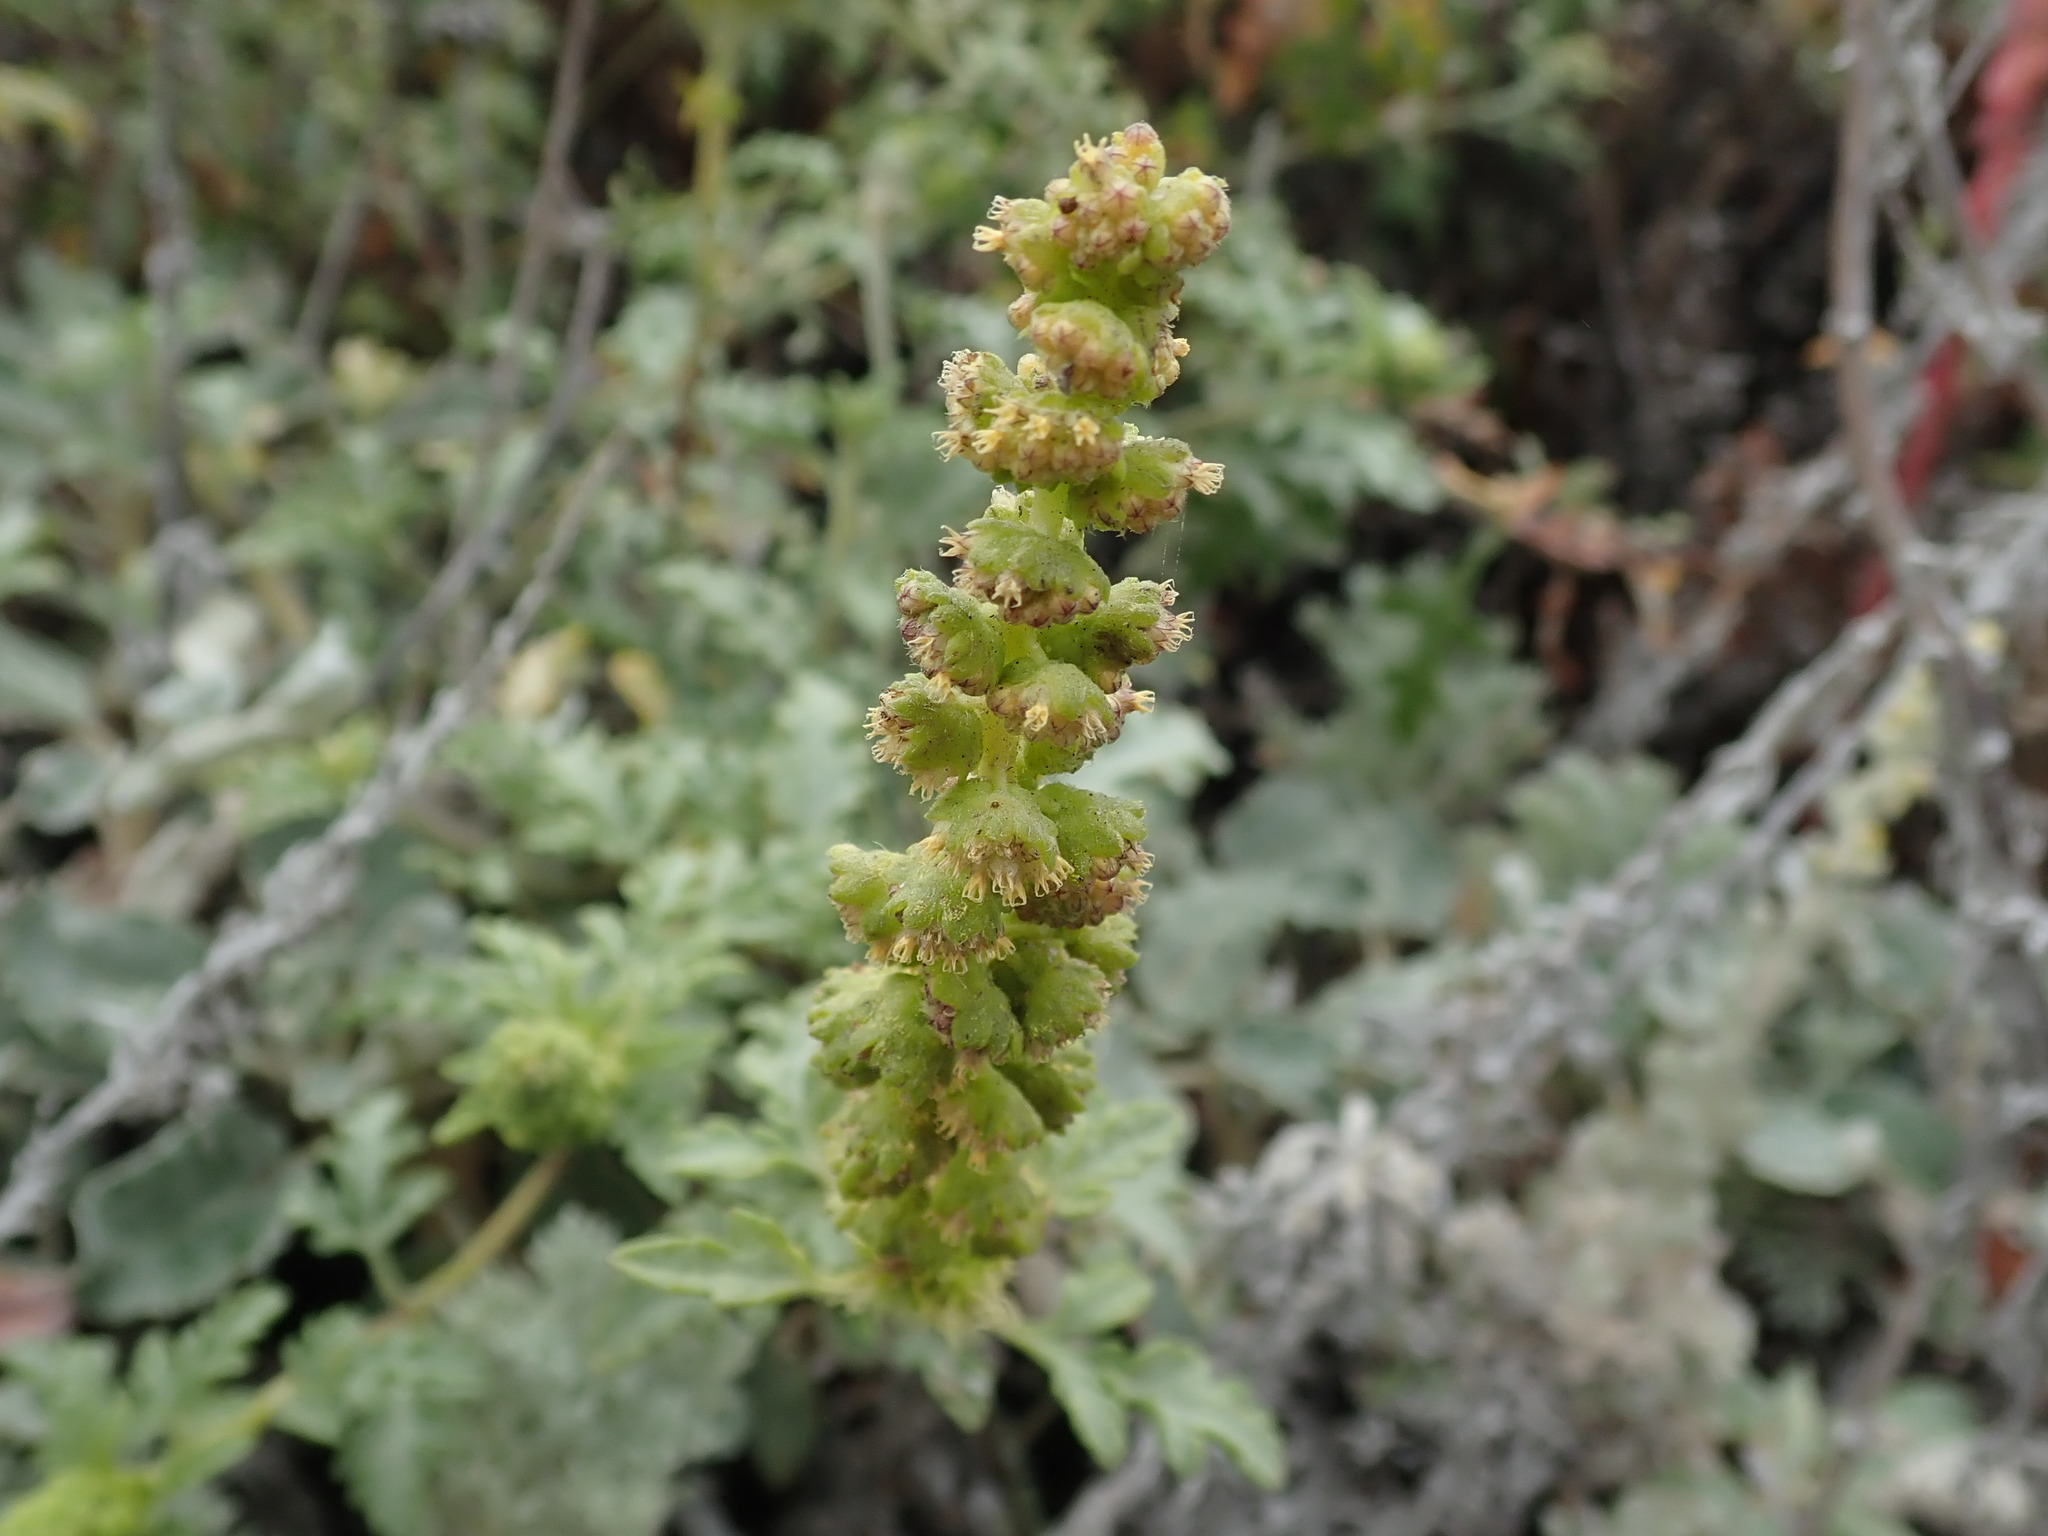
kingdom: Plantae
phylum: Tracheophyta
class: Magnoliopsida
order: Asterales
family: Asteraceae
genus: Ambrosia
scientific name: Ambrosia chamissonis
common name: Beachbur
